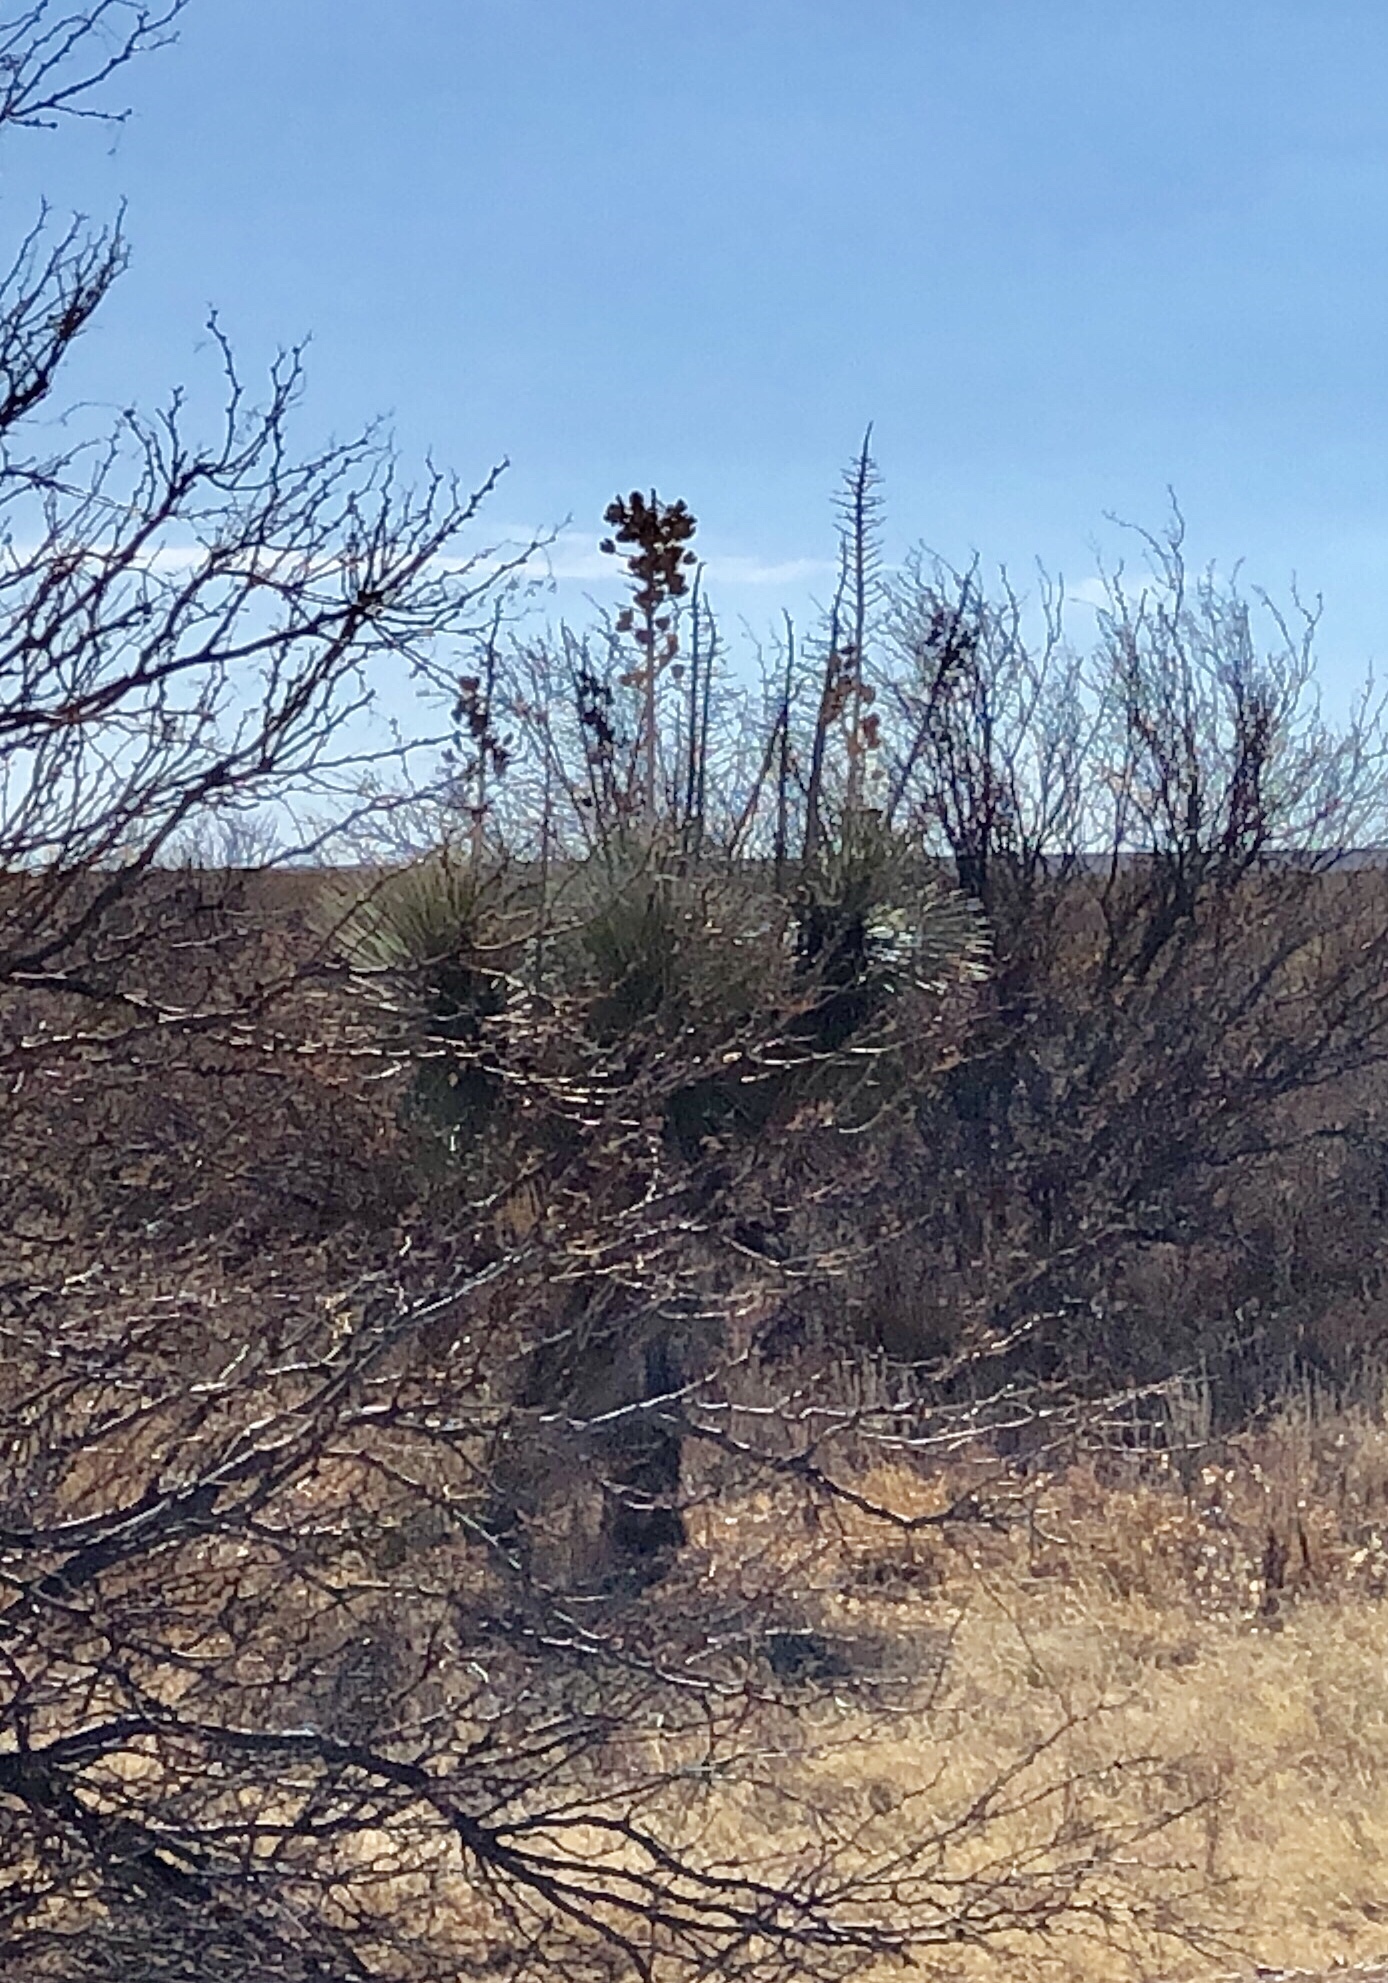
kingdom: Plantae
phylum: Tracheophyta
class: Liliopsida
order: Asparagales
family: Asparagaceae
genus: Yucca
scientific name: Yucca elata
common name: Palmella
